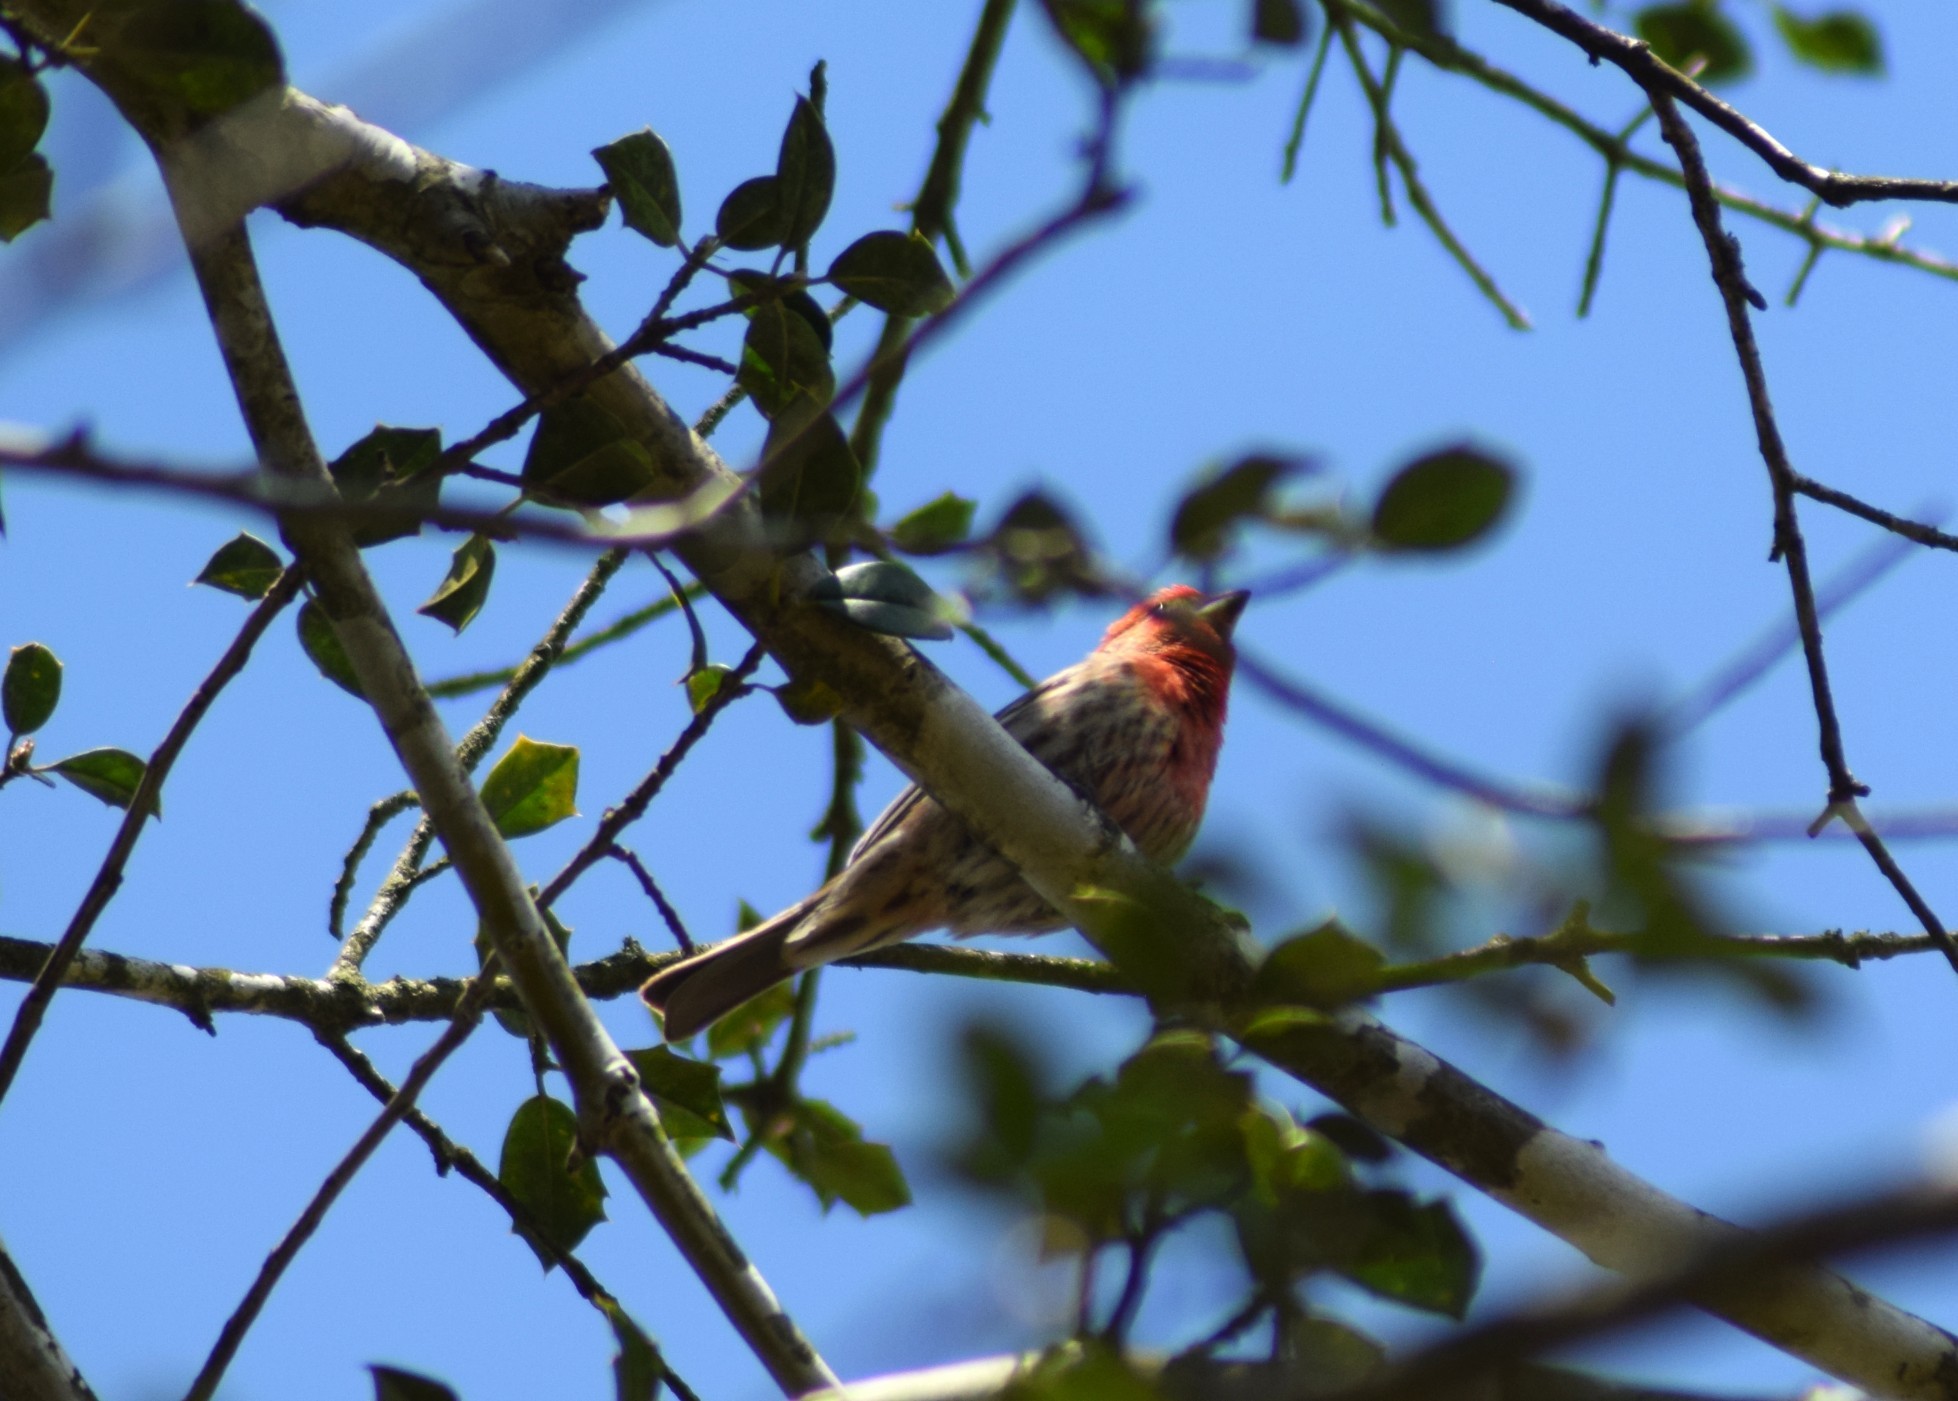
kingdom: Animalia
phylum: Chordata
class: Aves
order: Passeriformes
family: Fringillidae
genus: Haemorhous
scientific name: Haemorhous mexicanus
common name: House finch
